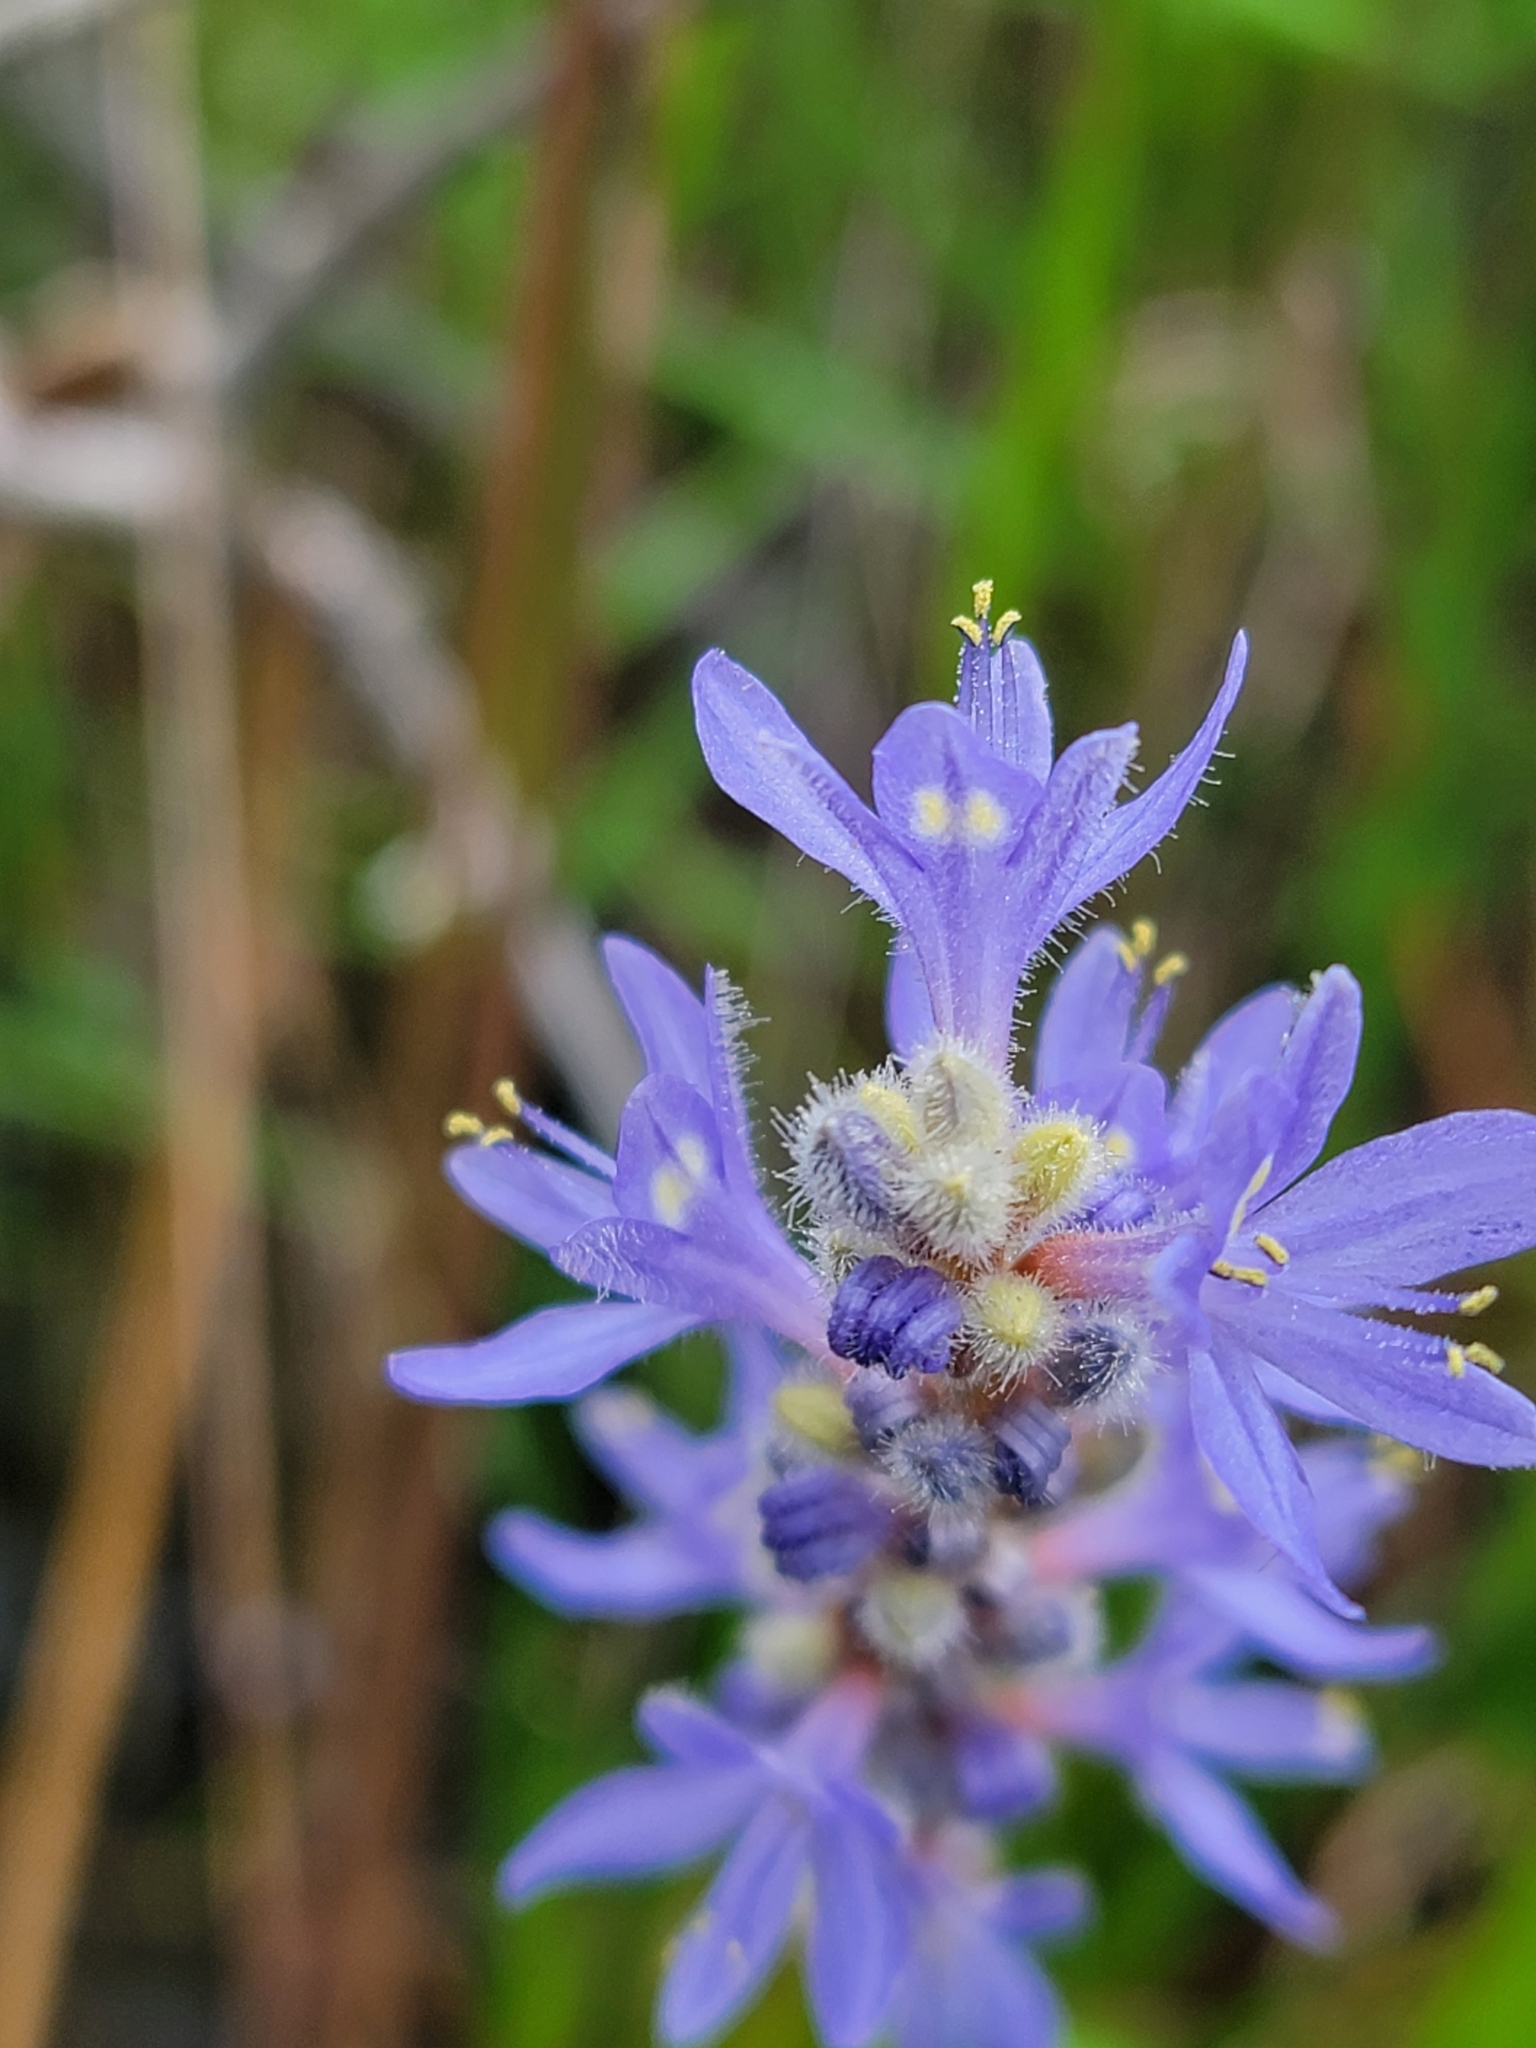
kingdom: Plantae
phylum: Tracheophyta
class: Liliopsida
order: Commelinales
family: Pontederiaceae
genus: Pontederia
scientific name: Pontederia cordata
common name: Pickerelweed
